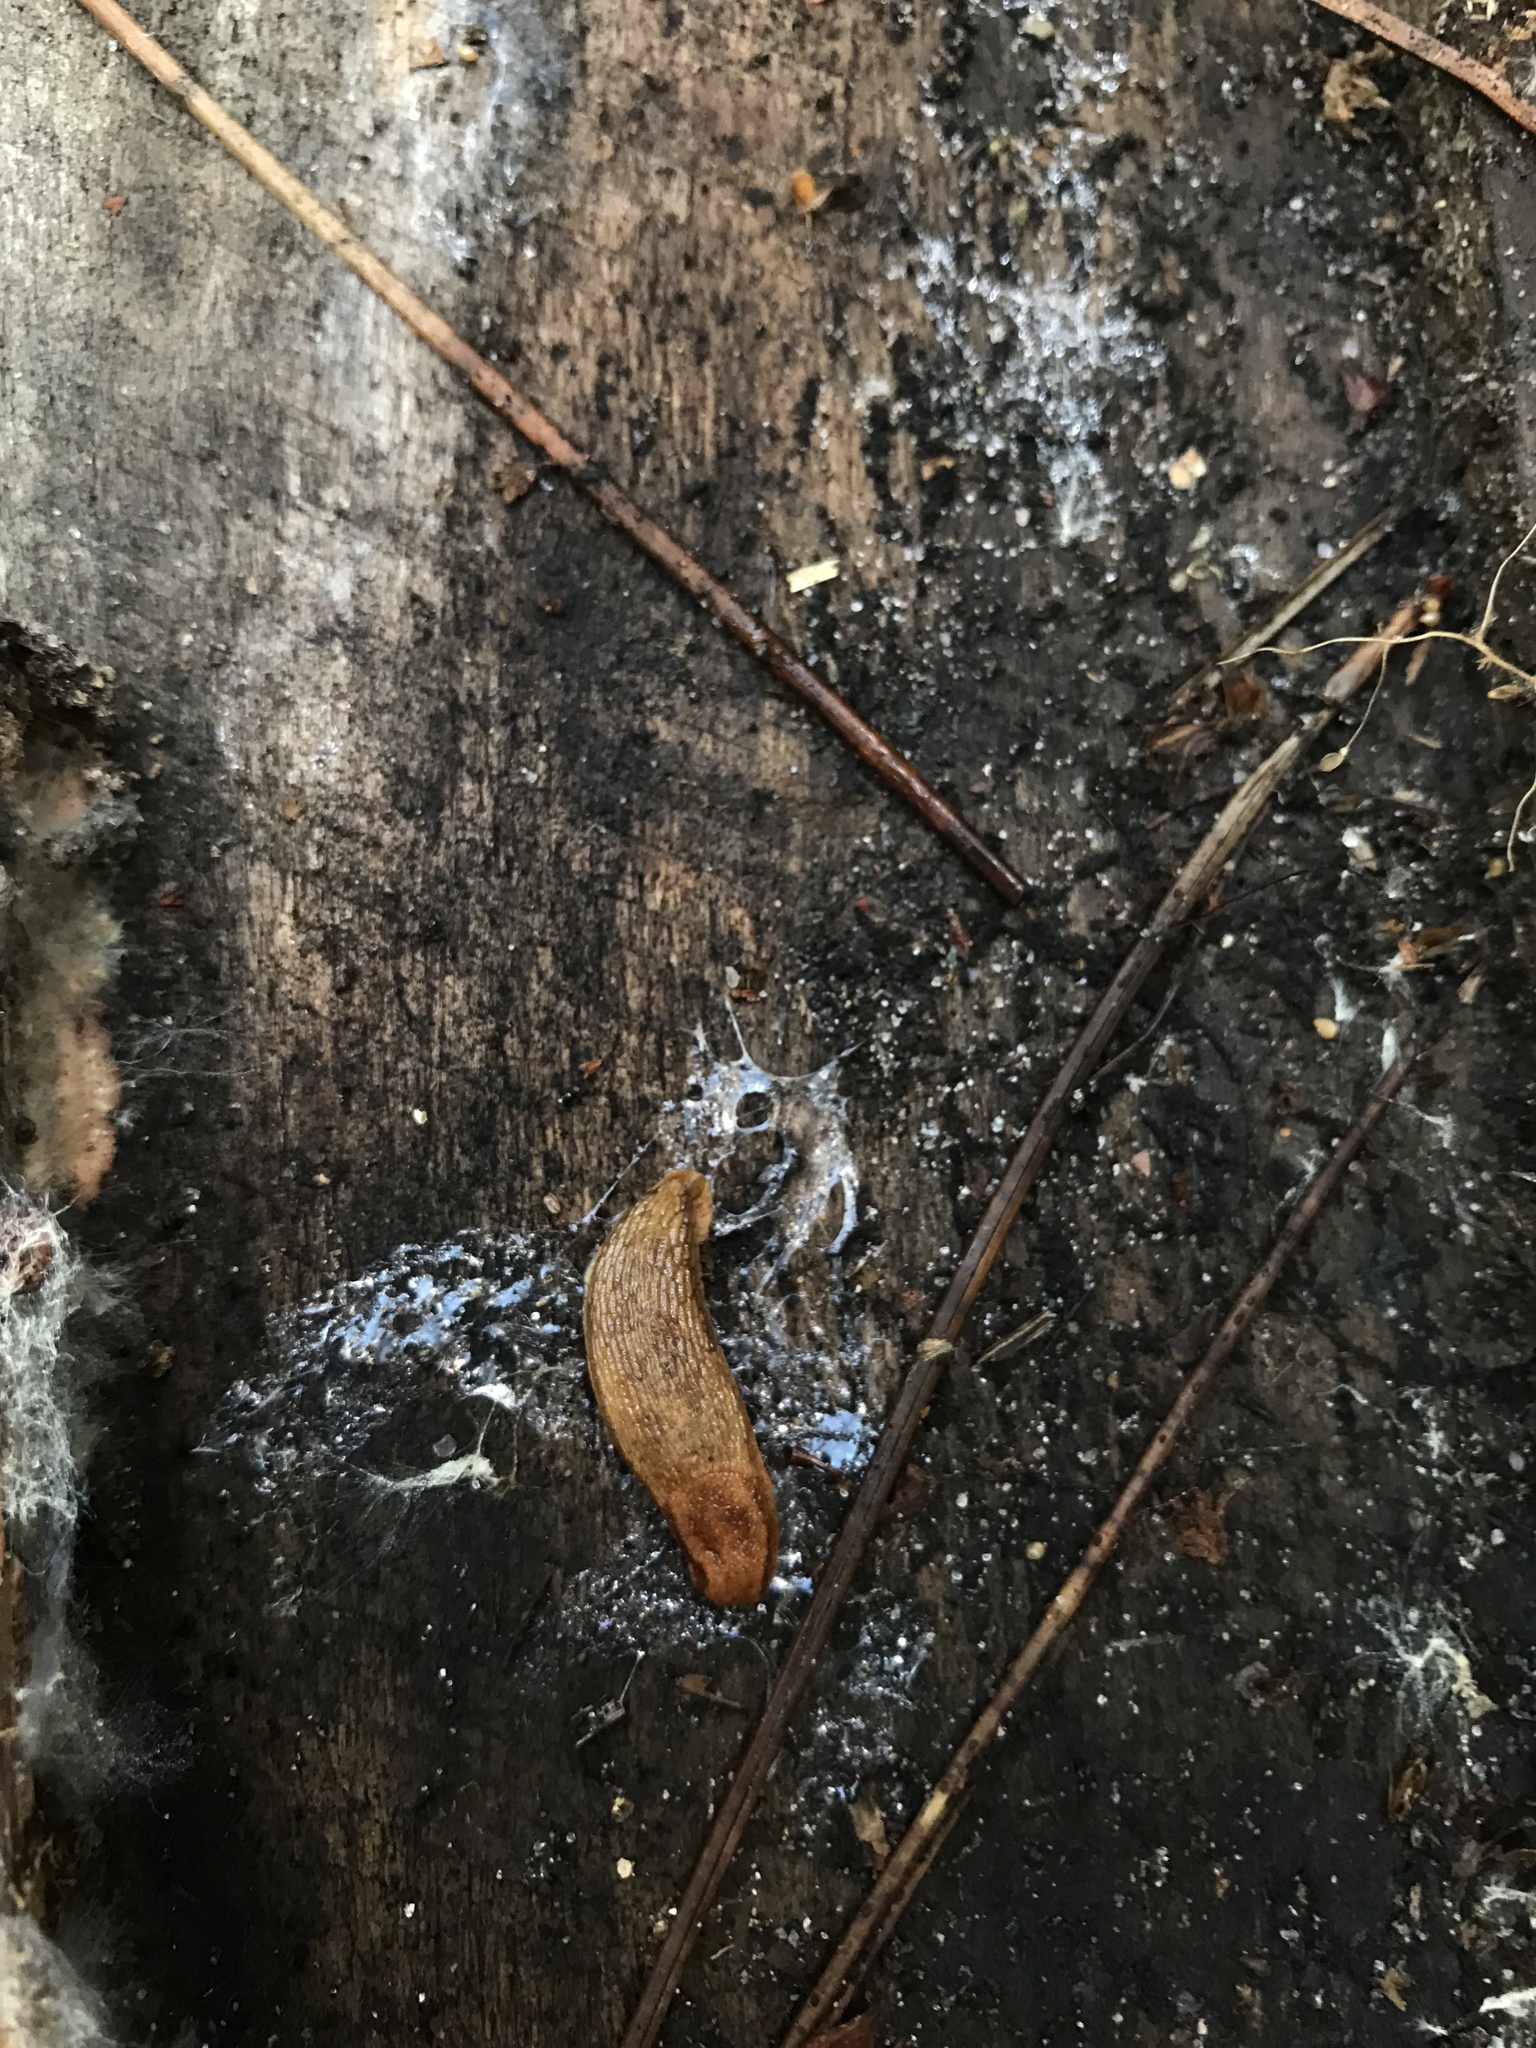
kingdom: Animalia
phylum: Mollusca
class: Gastropoda
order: Stylommatophora
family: Arionidae
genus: Arion
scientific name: Arion subfuscus
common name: Dusky arion
